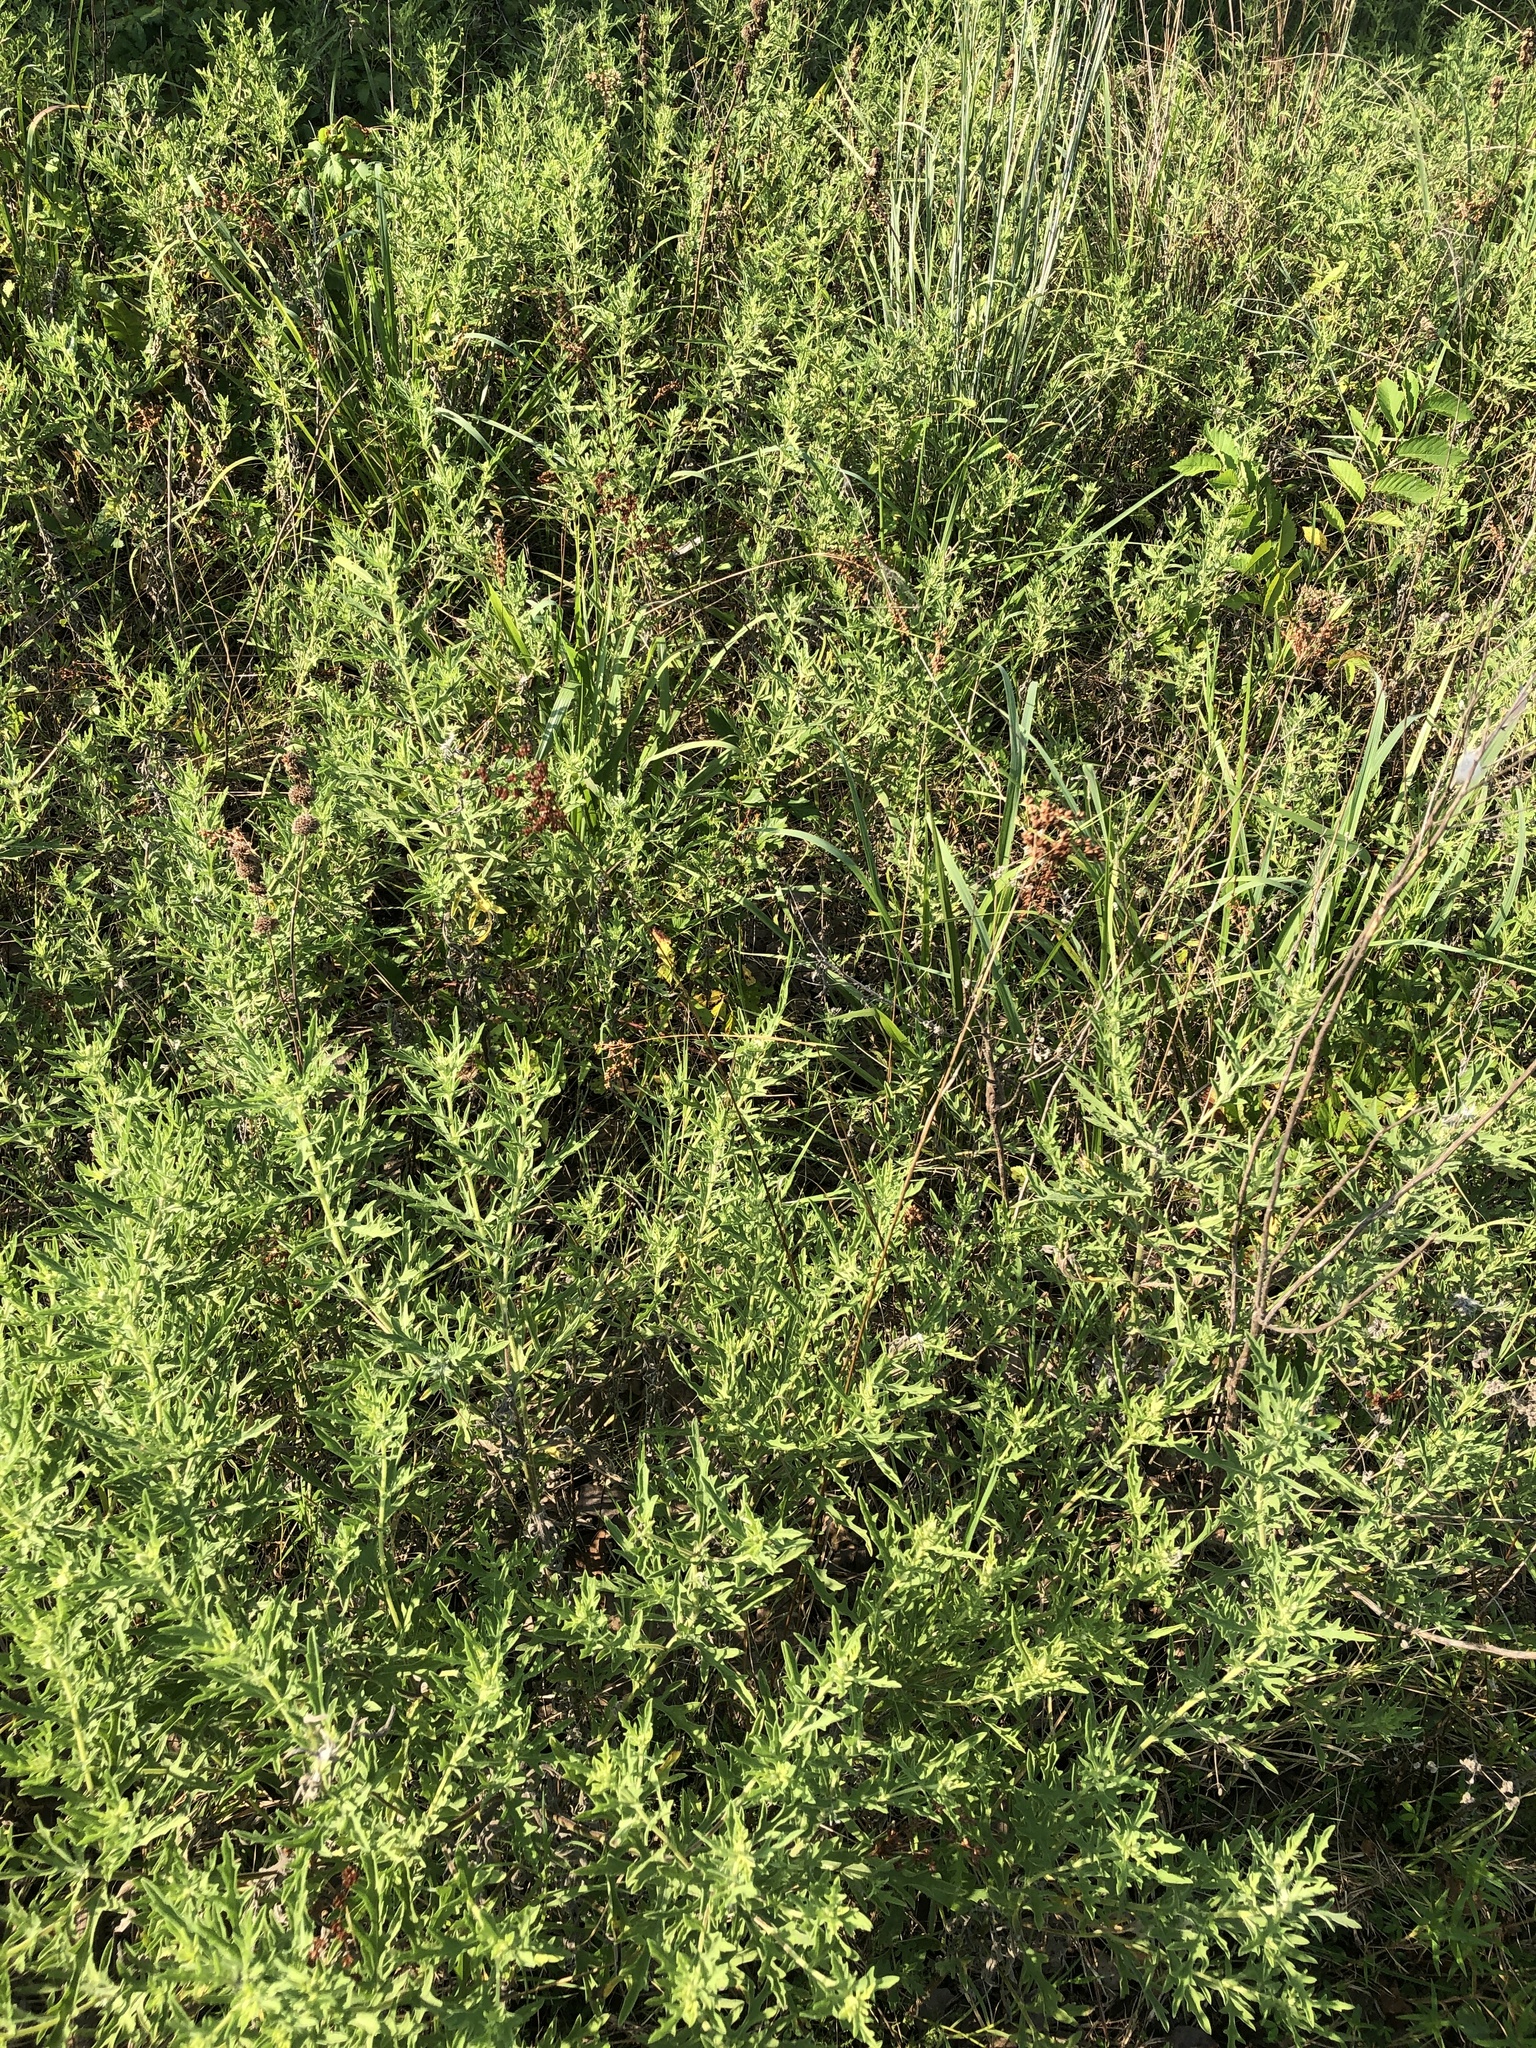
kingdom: Plantae
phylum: Tracheophyta
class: Liliopsida
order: Poales
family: Juncaceae
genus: Juncus
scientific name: Juncus marginatus
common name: Grass-leaf rush
